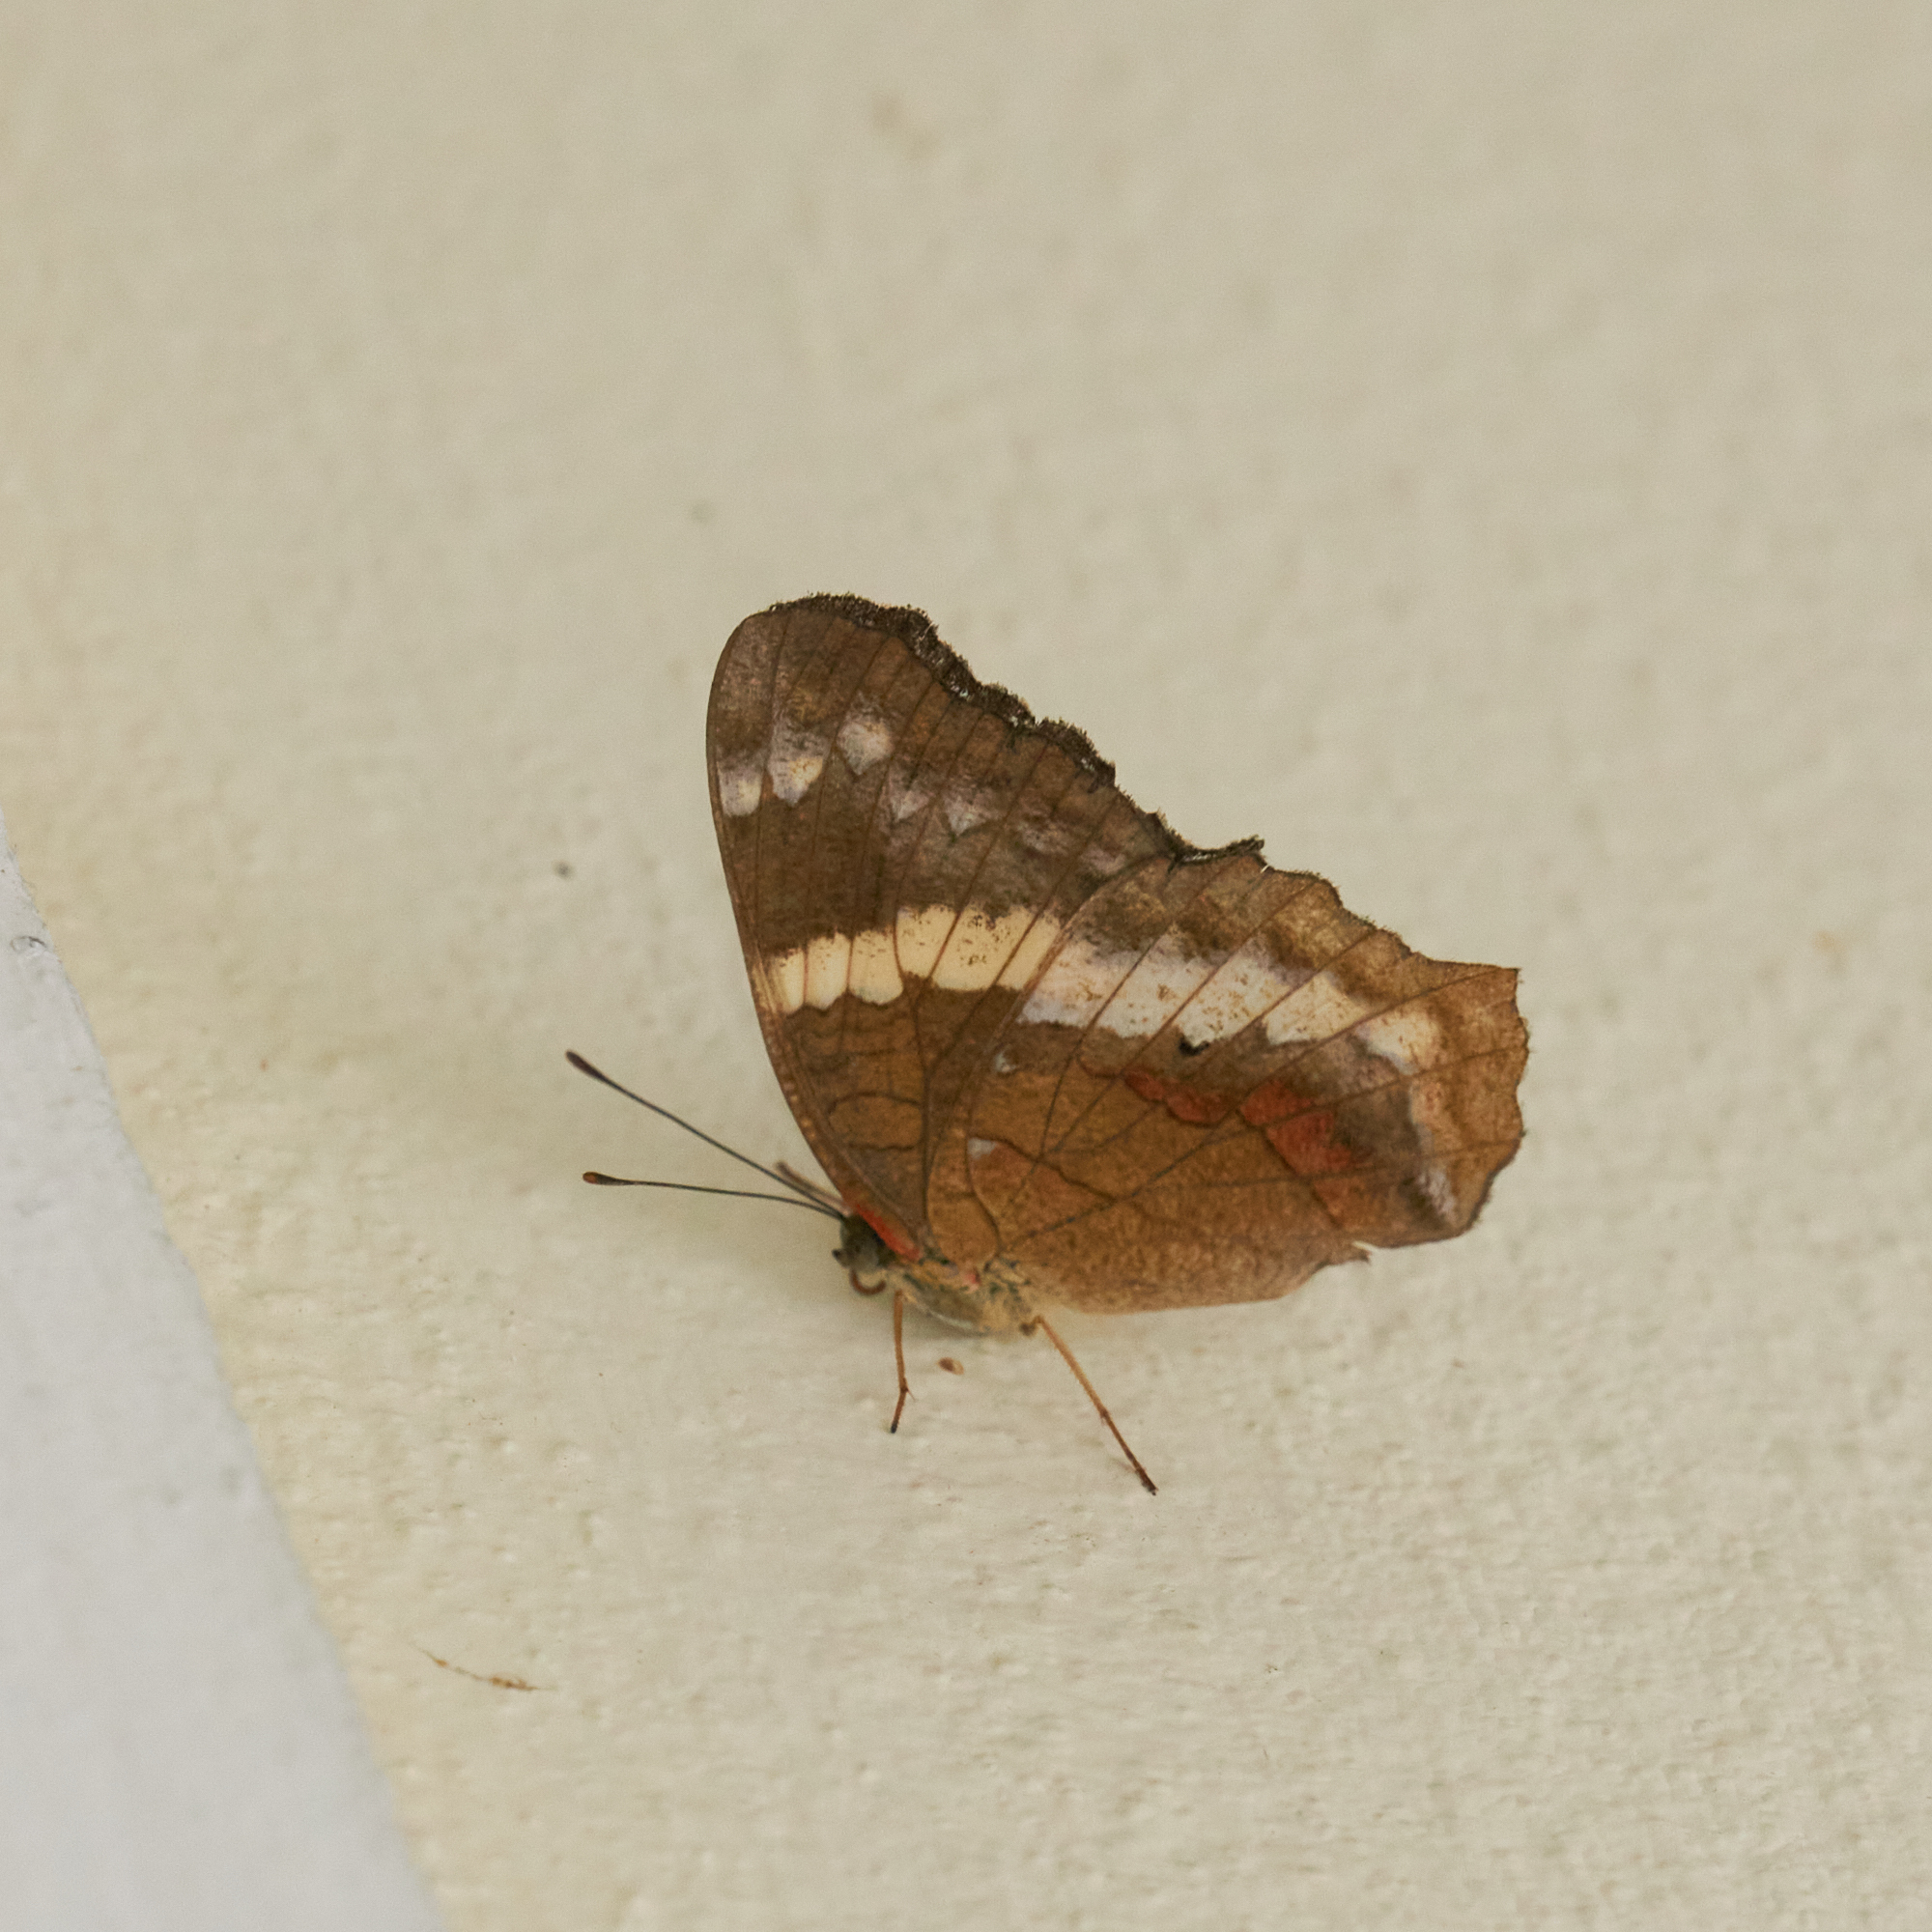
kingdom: Animalia
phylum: Arthropoda
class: Insecta
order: Lepidoptera
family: Nymphalidae
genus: Anartia
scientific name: Anartia fatima
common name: Banded peacock
